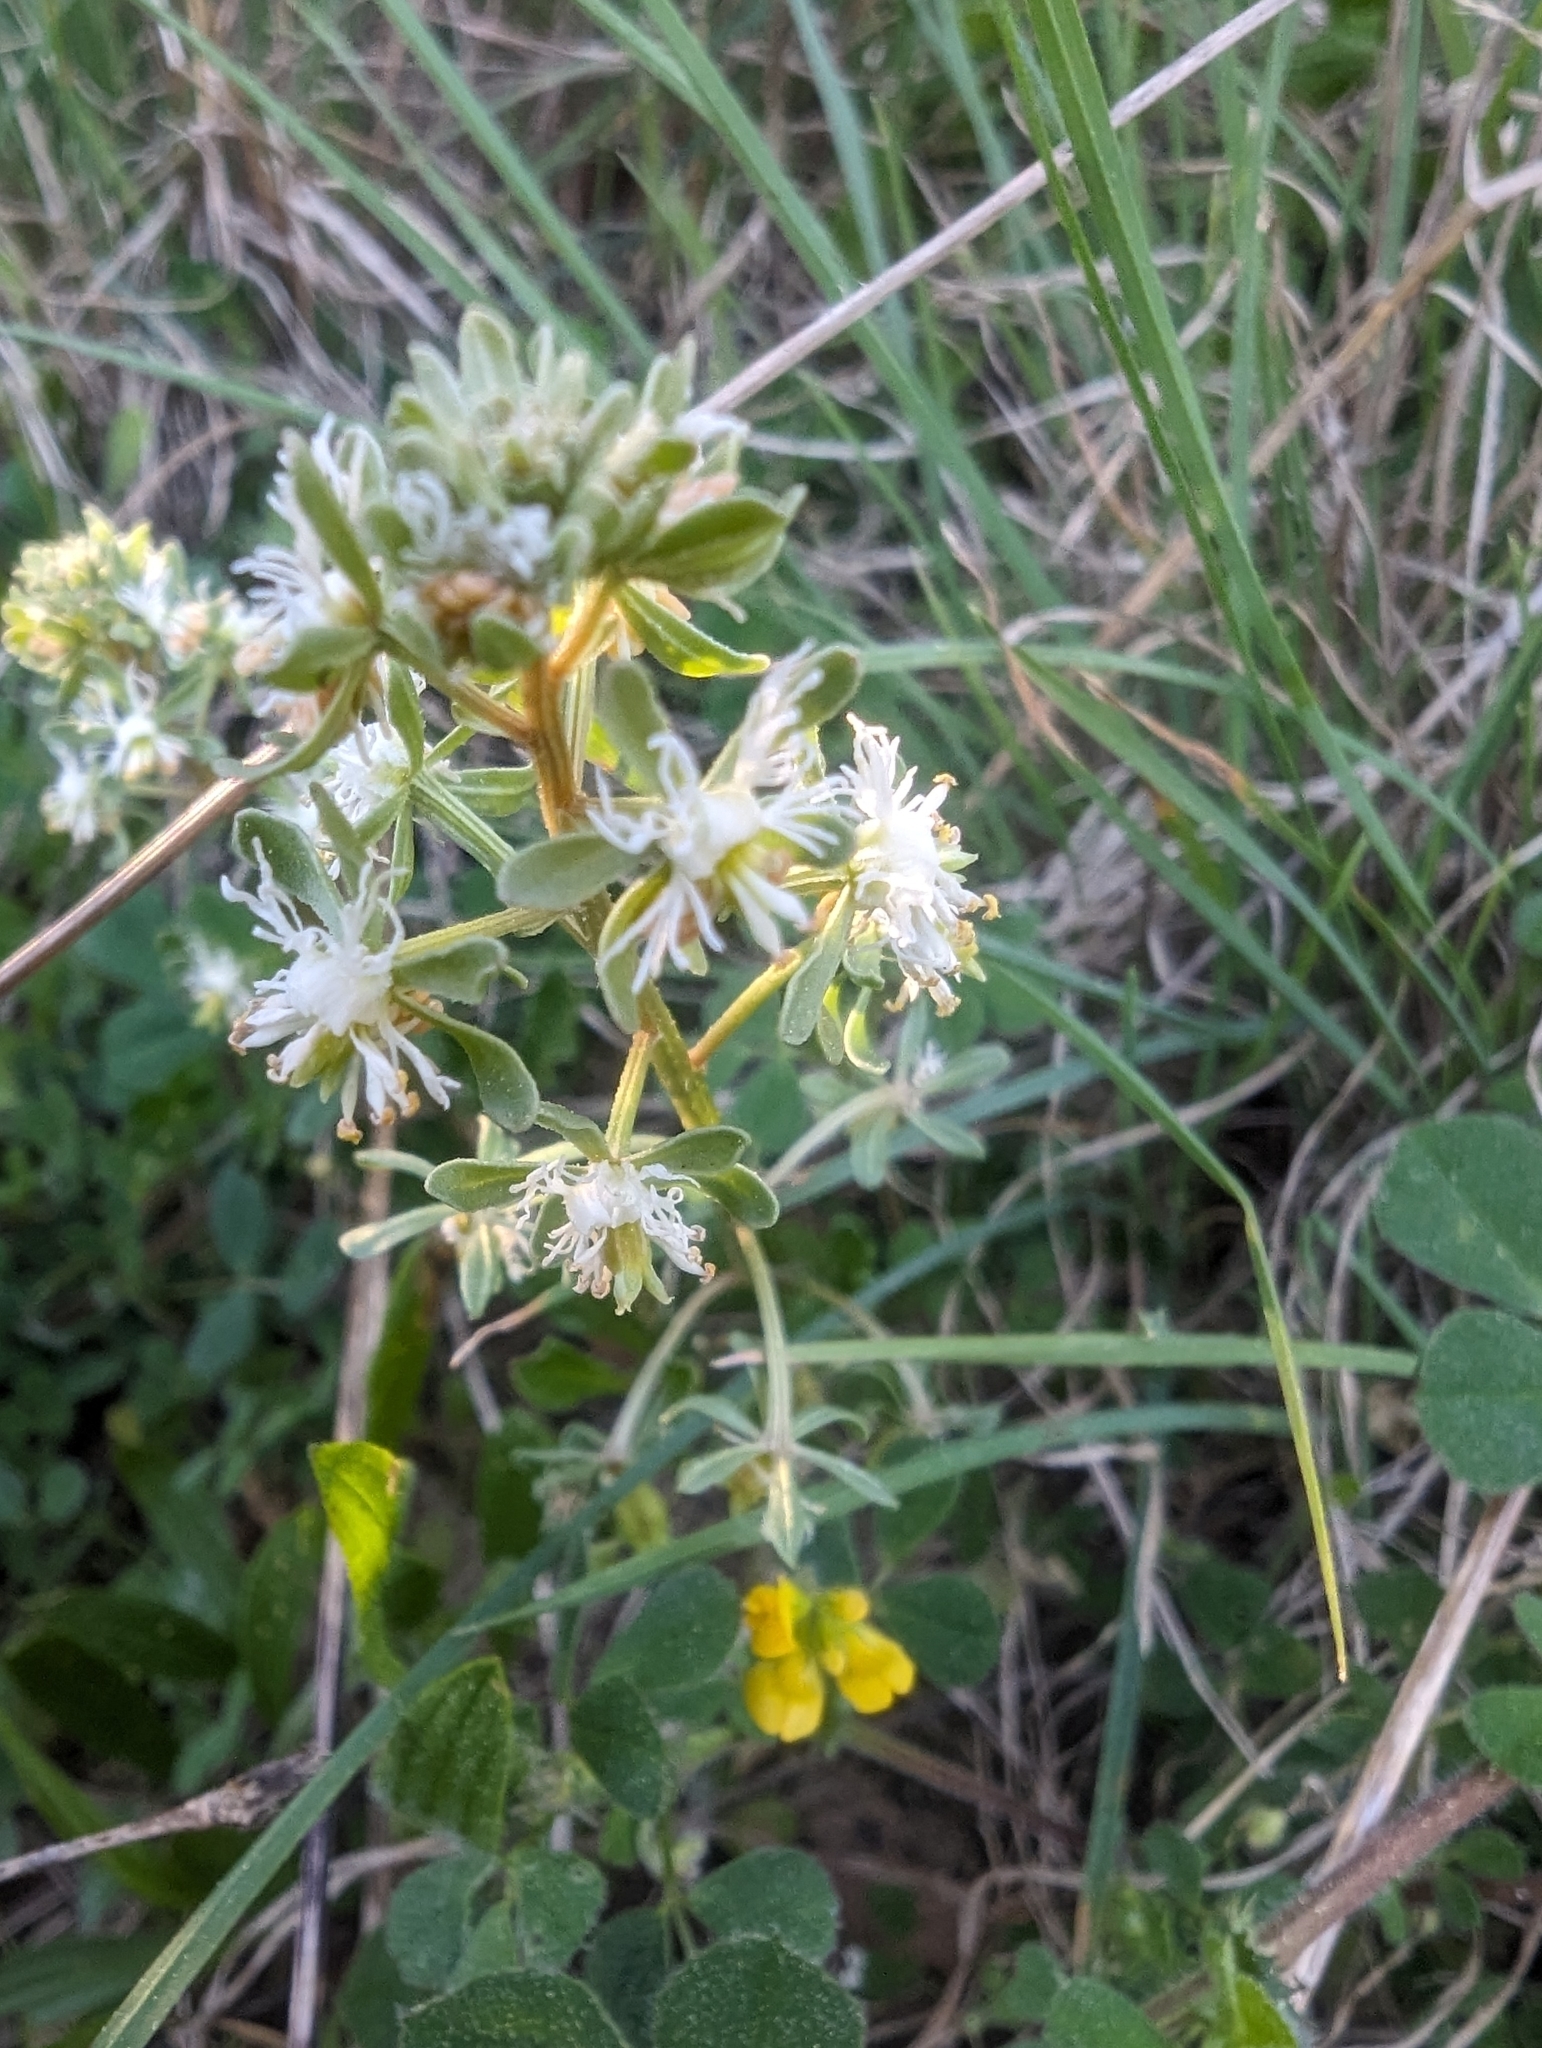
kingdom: Plantae
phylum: Tracheophyta
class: Magnoliopsida
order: Brassicales
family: Resedaceae
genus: Reseda
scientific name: Reseda phyteuma
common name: Corn mignonette
